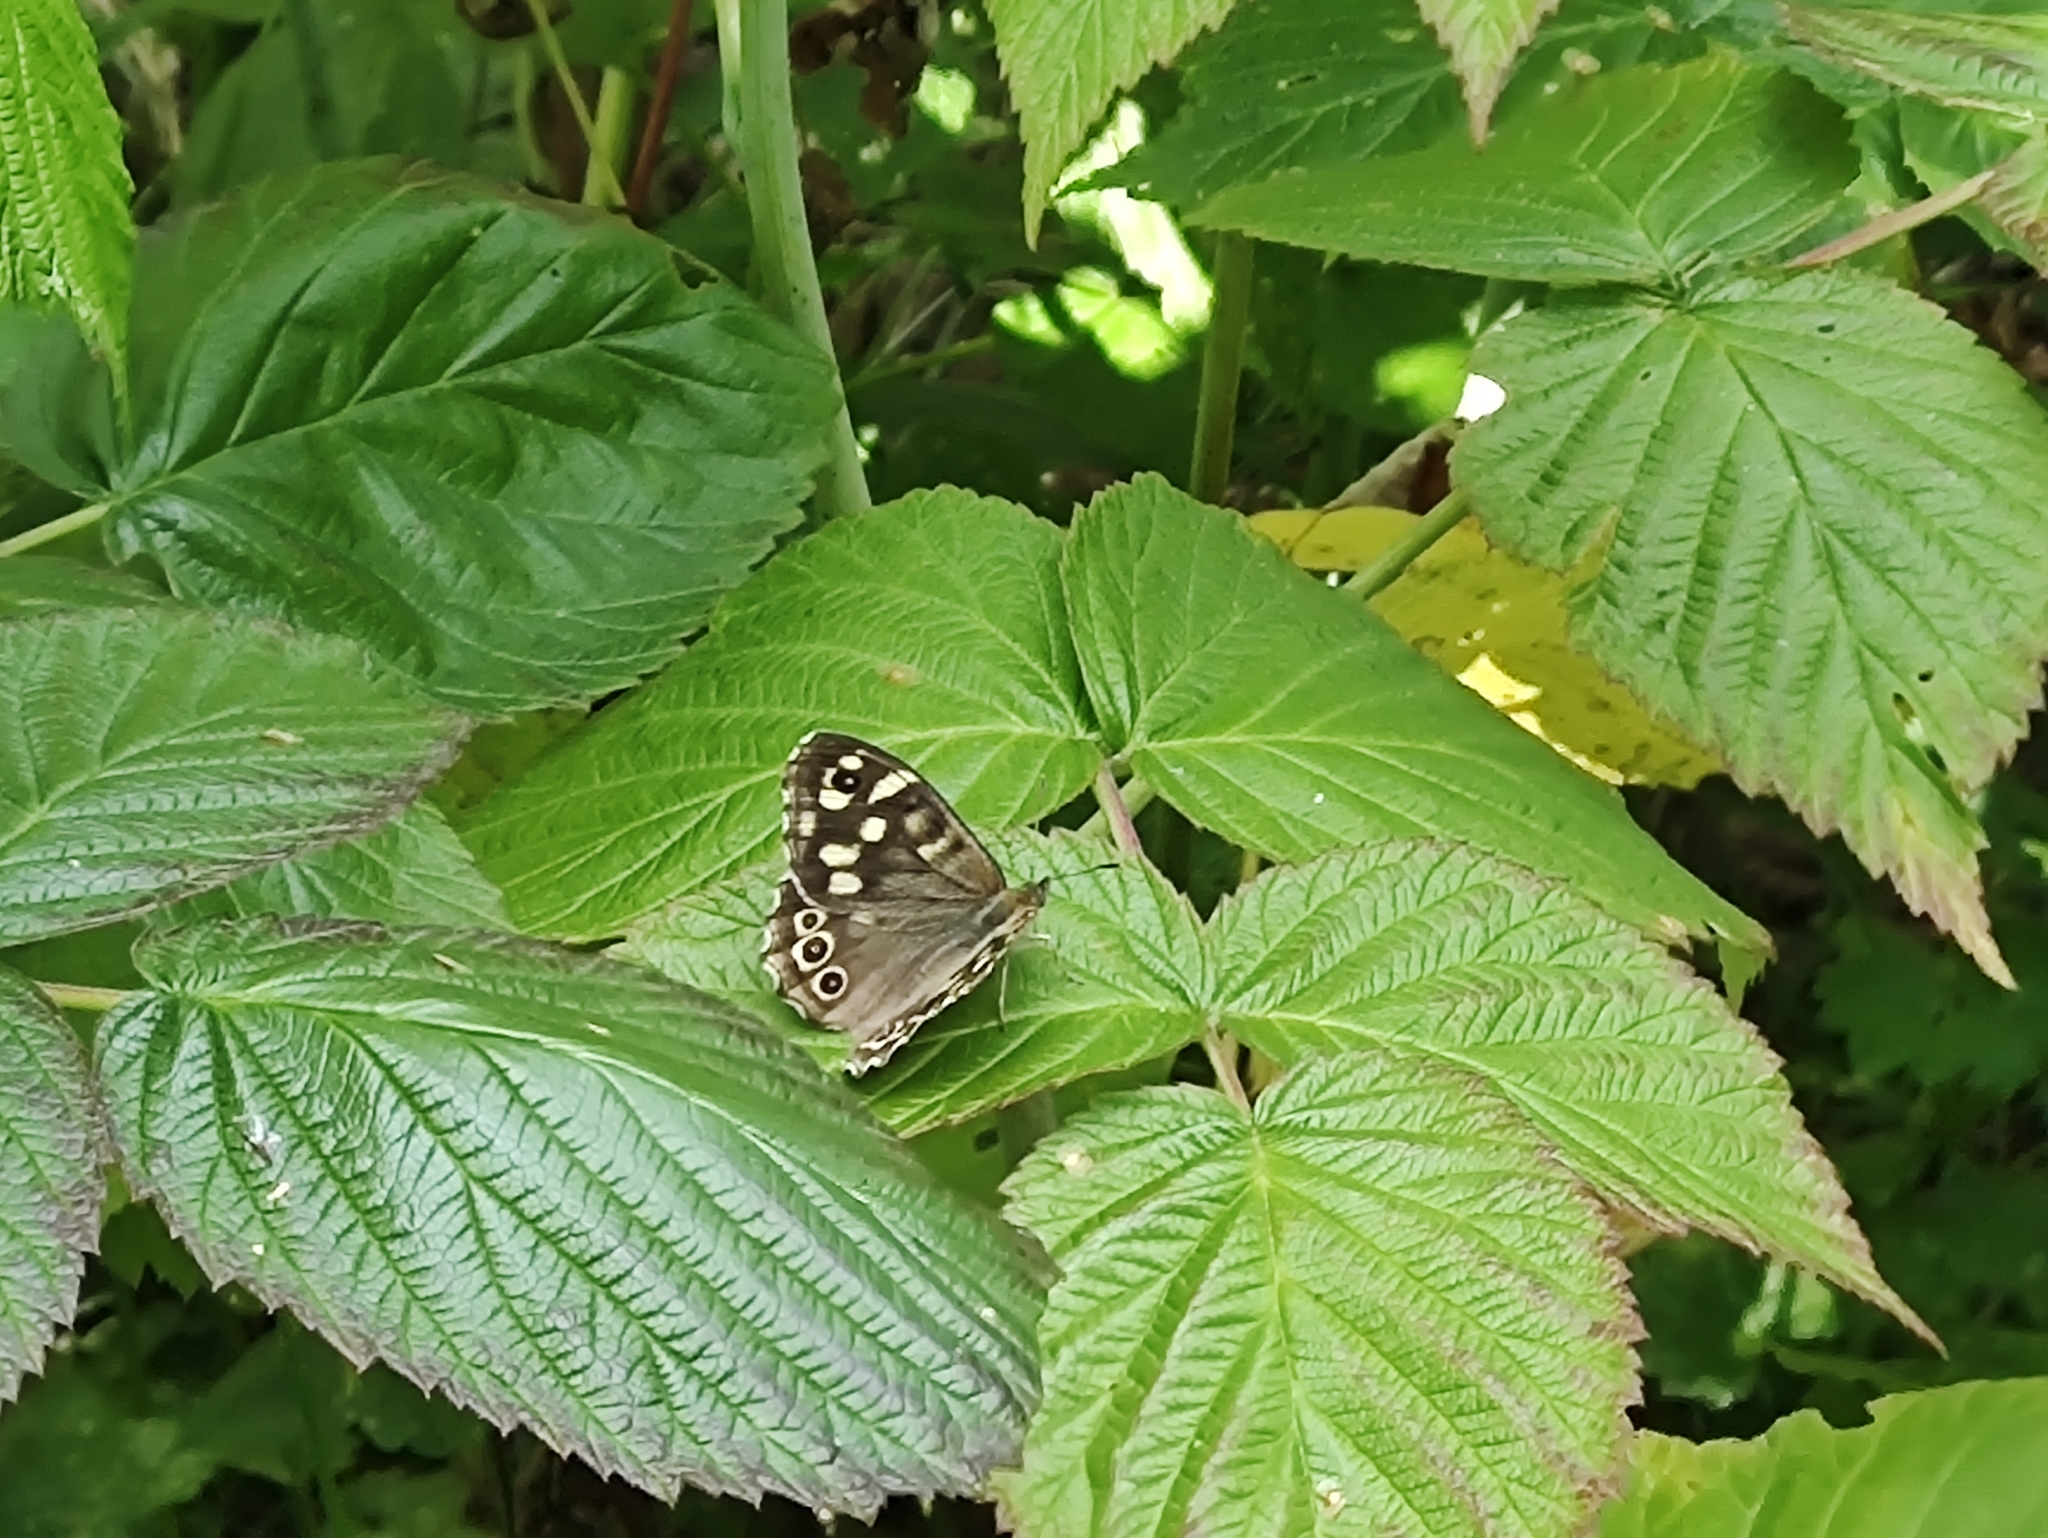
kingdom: Animalia
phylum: Arthropoda
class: Insecta
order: Lepidoptera
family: Nymphalidae
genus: Pararge
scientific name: Pararge aegeria
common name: Speckled wood
